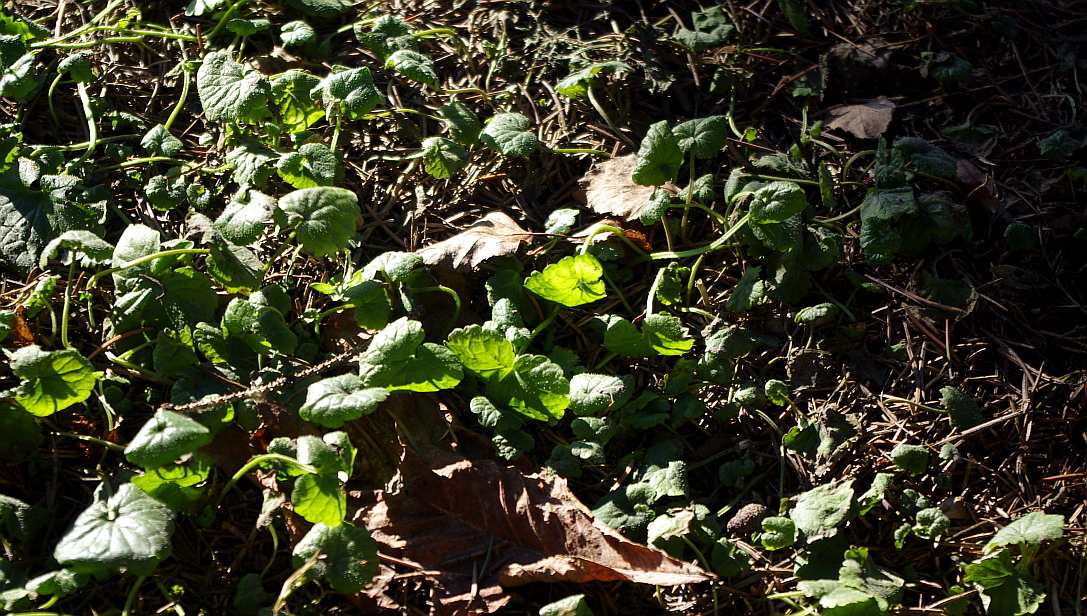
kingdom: Plantae
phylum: Tracheophyta
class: Magnoliopsida
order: Lamiales
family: Lamiaceae
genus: Glechoma
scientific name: Glechoma hederacea
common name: Ground ivy
